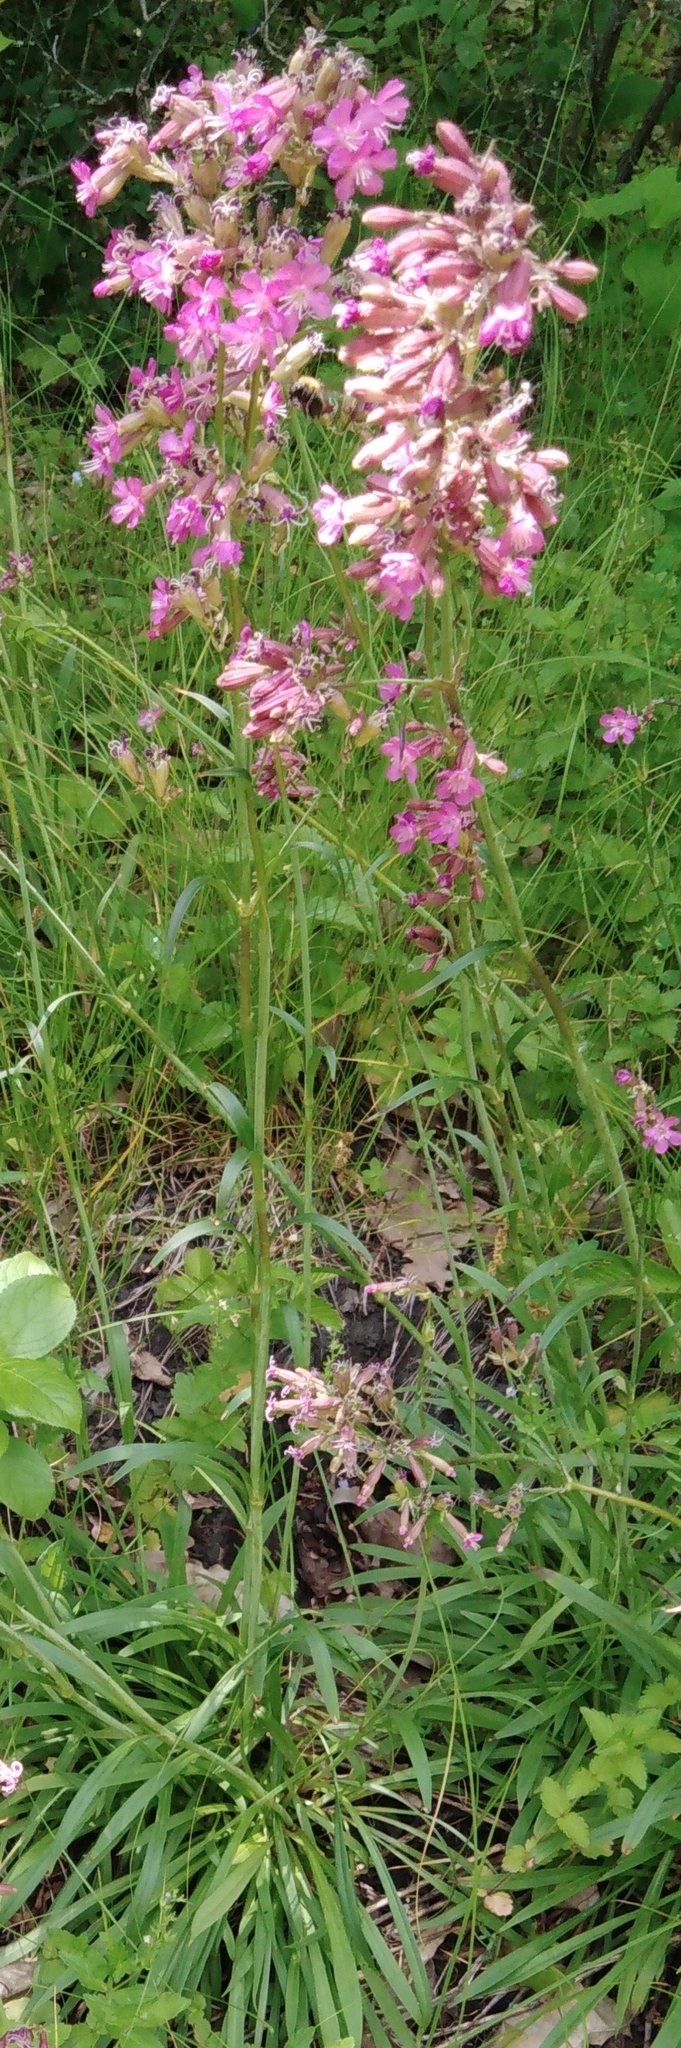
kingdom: Plantae
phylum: Tracheophyta
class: Magnoliopsida
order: Caryophyllales
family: Caryophyllaceae
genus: Viscaria
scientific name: Viscaria vulgaris
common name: Clammy campion
